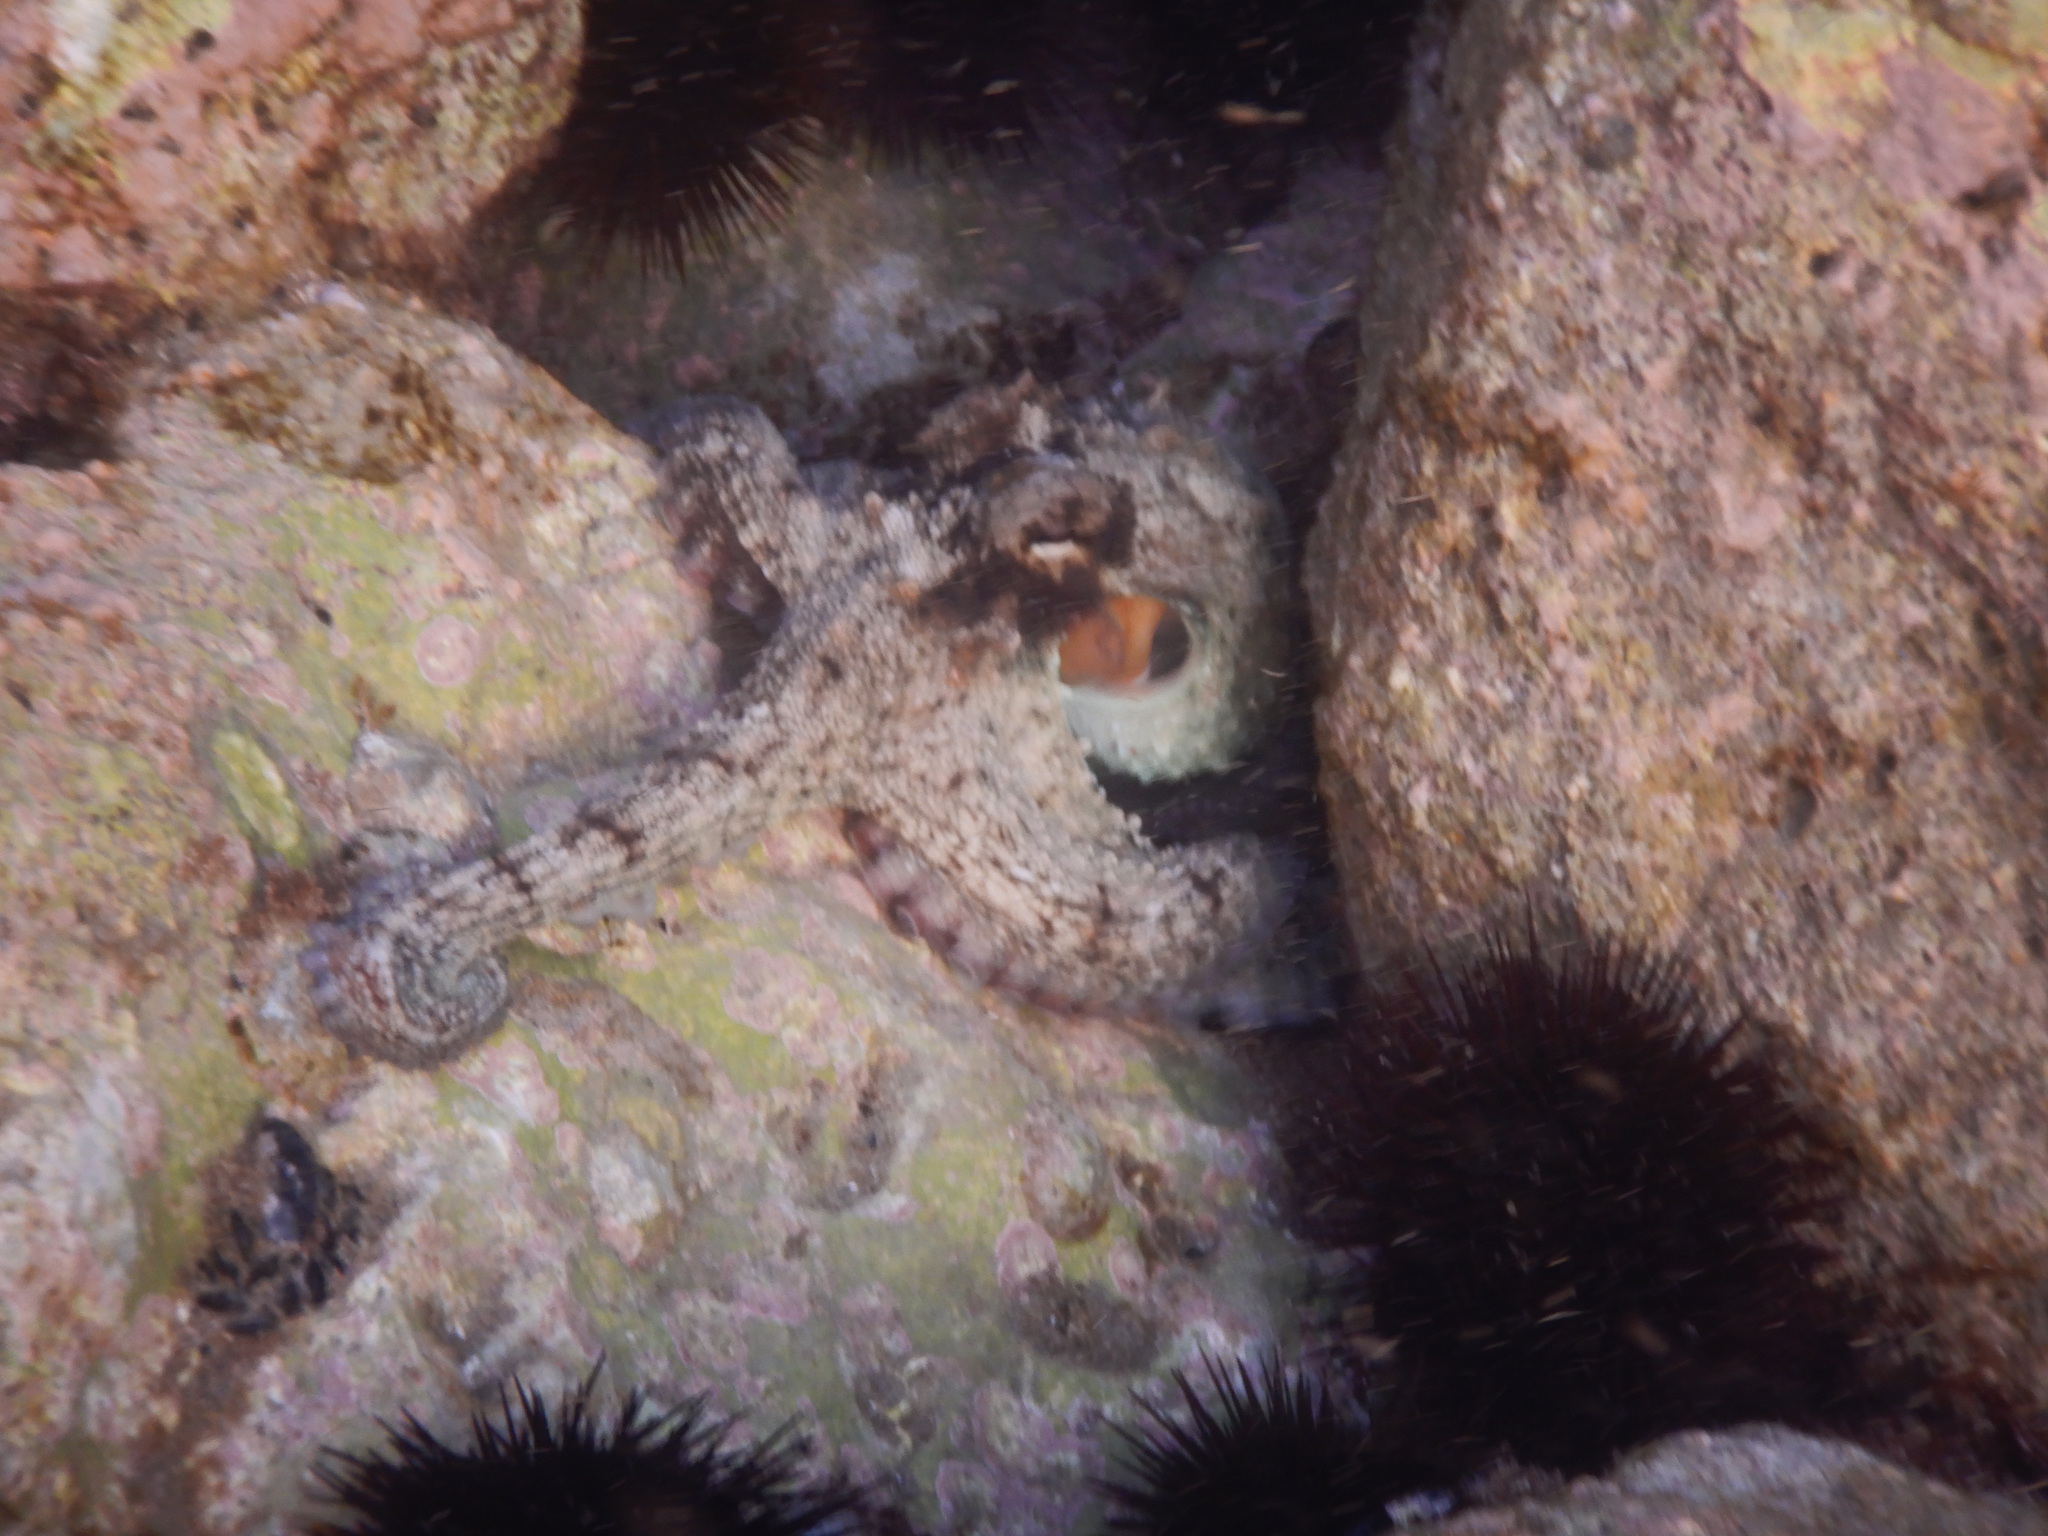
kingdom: Animalia
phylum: Mollusca
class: Cephalopoda
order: Octopoda
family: Octopodidae
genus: Octopus
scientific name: Octopus vulgaris
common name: Common octopus
